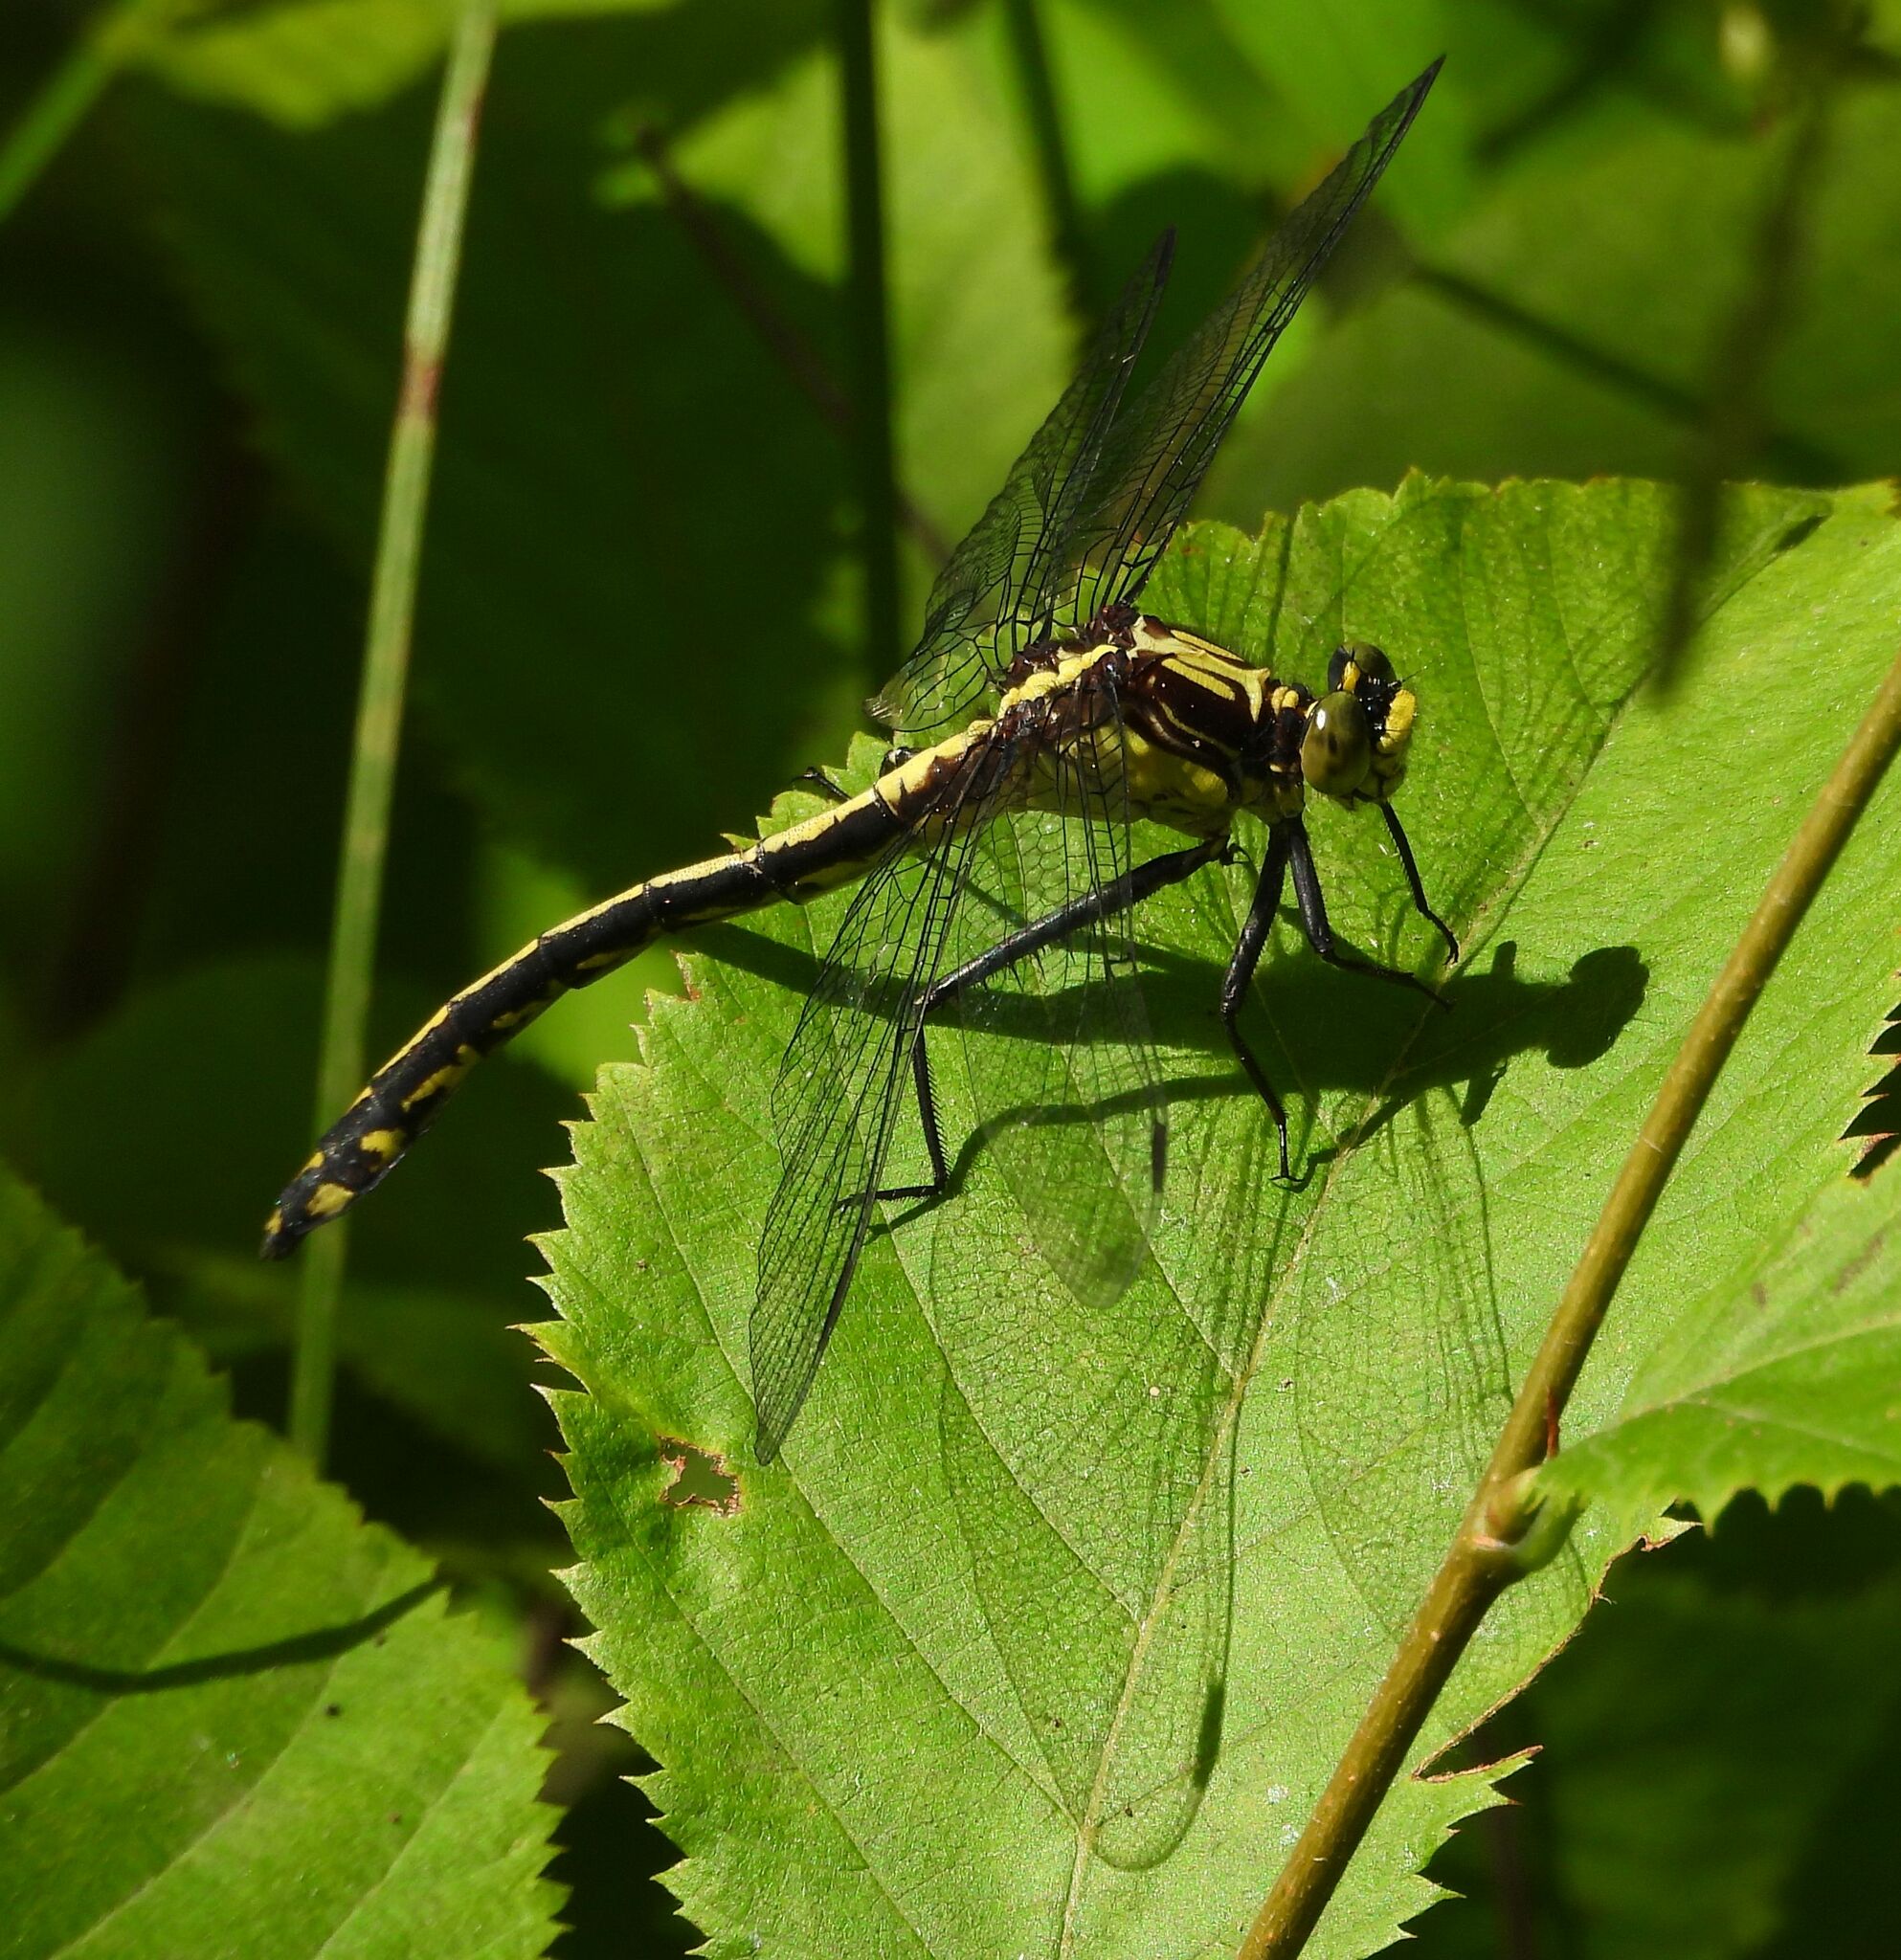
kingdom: Animalia
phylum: Arthropoda
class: Insecta
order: Odonata
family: Gomphidae
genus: Dromogomphus
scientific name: Dromogomphus spinosus
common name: Black-shouldered spinyleg
